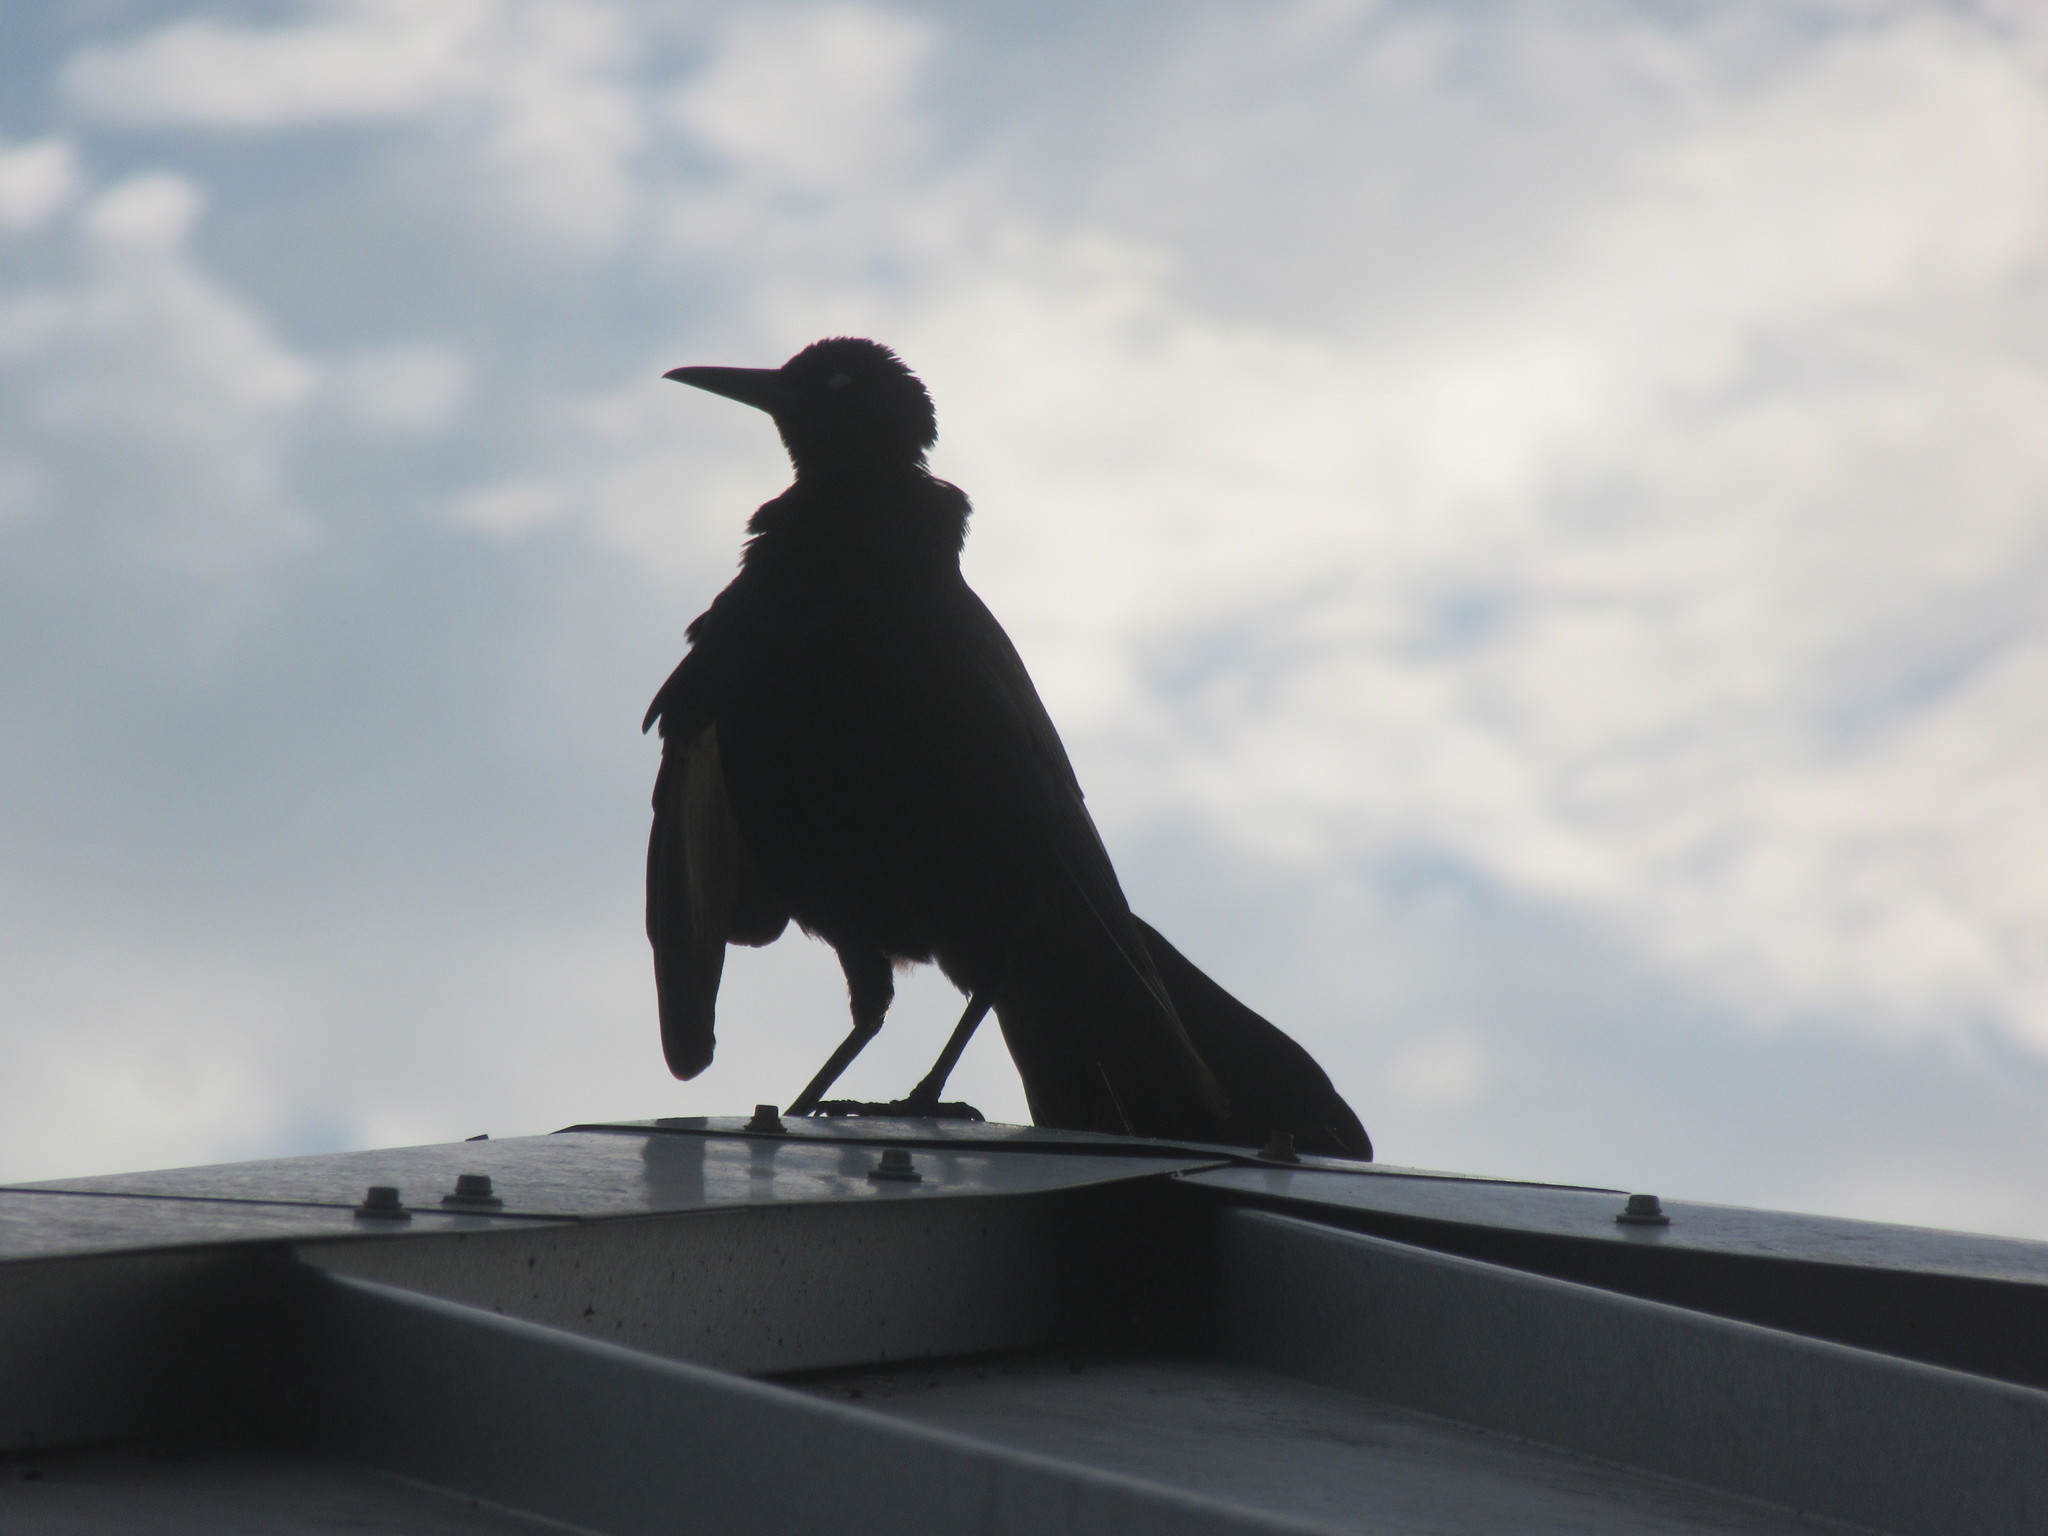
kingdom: Animalia
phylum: Chordata
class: Aves
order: Passeriformes
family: Icteridae
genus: Quiscalus
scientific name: Quiscalus major
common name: Boat-tailed grackle
